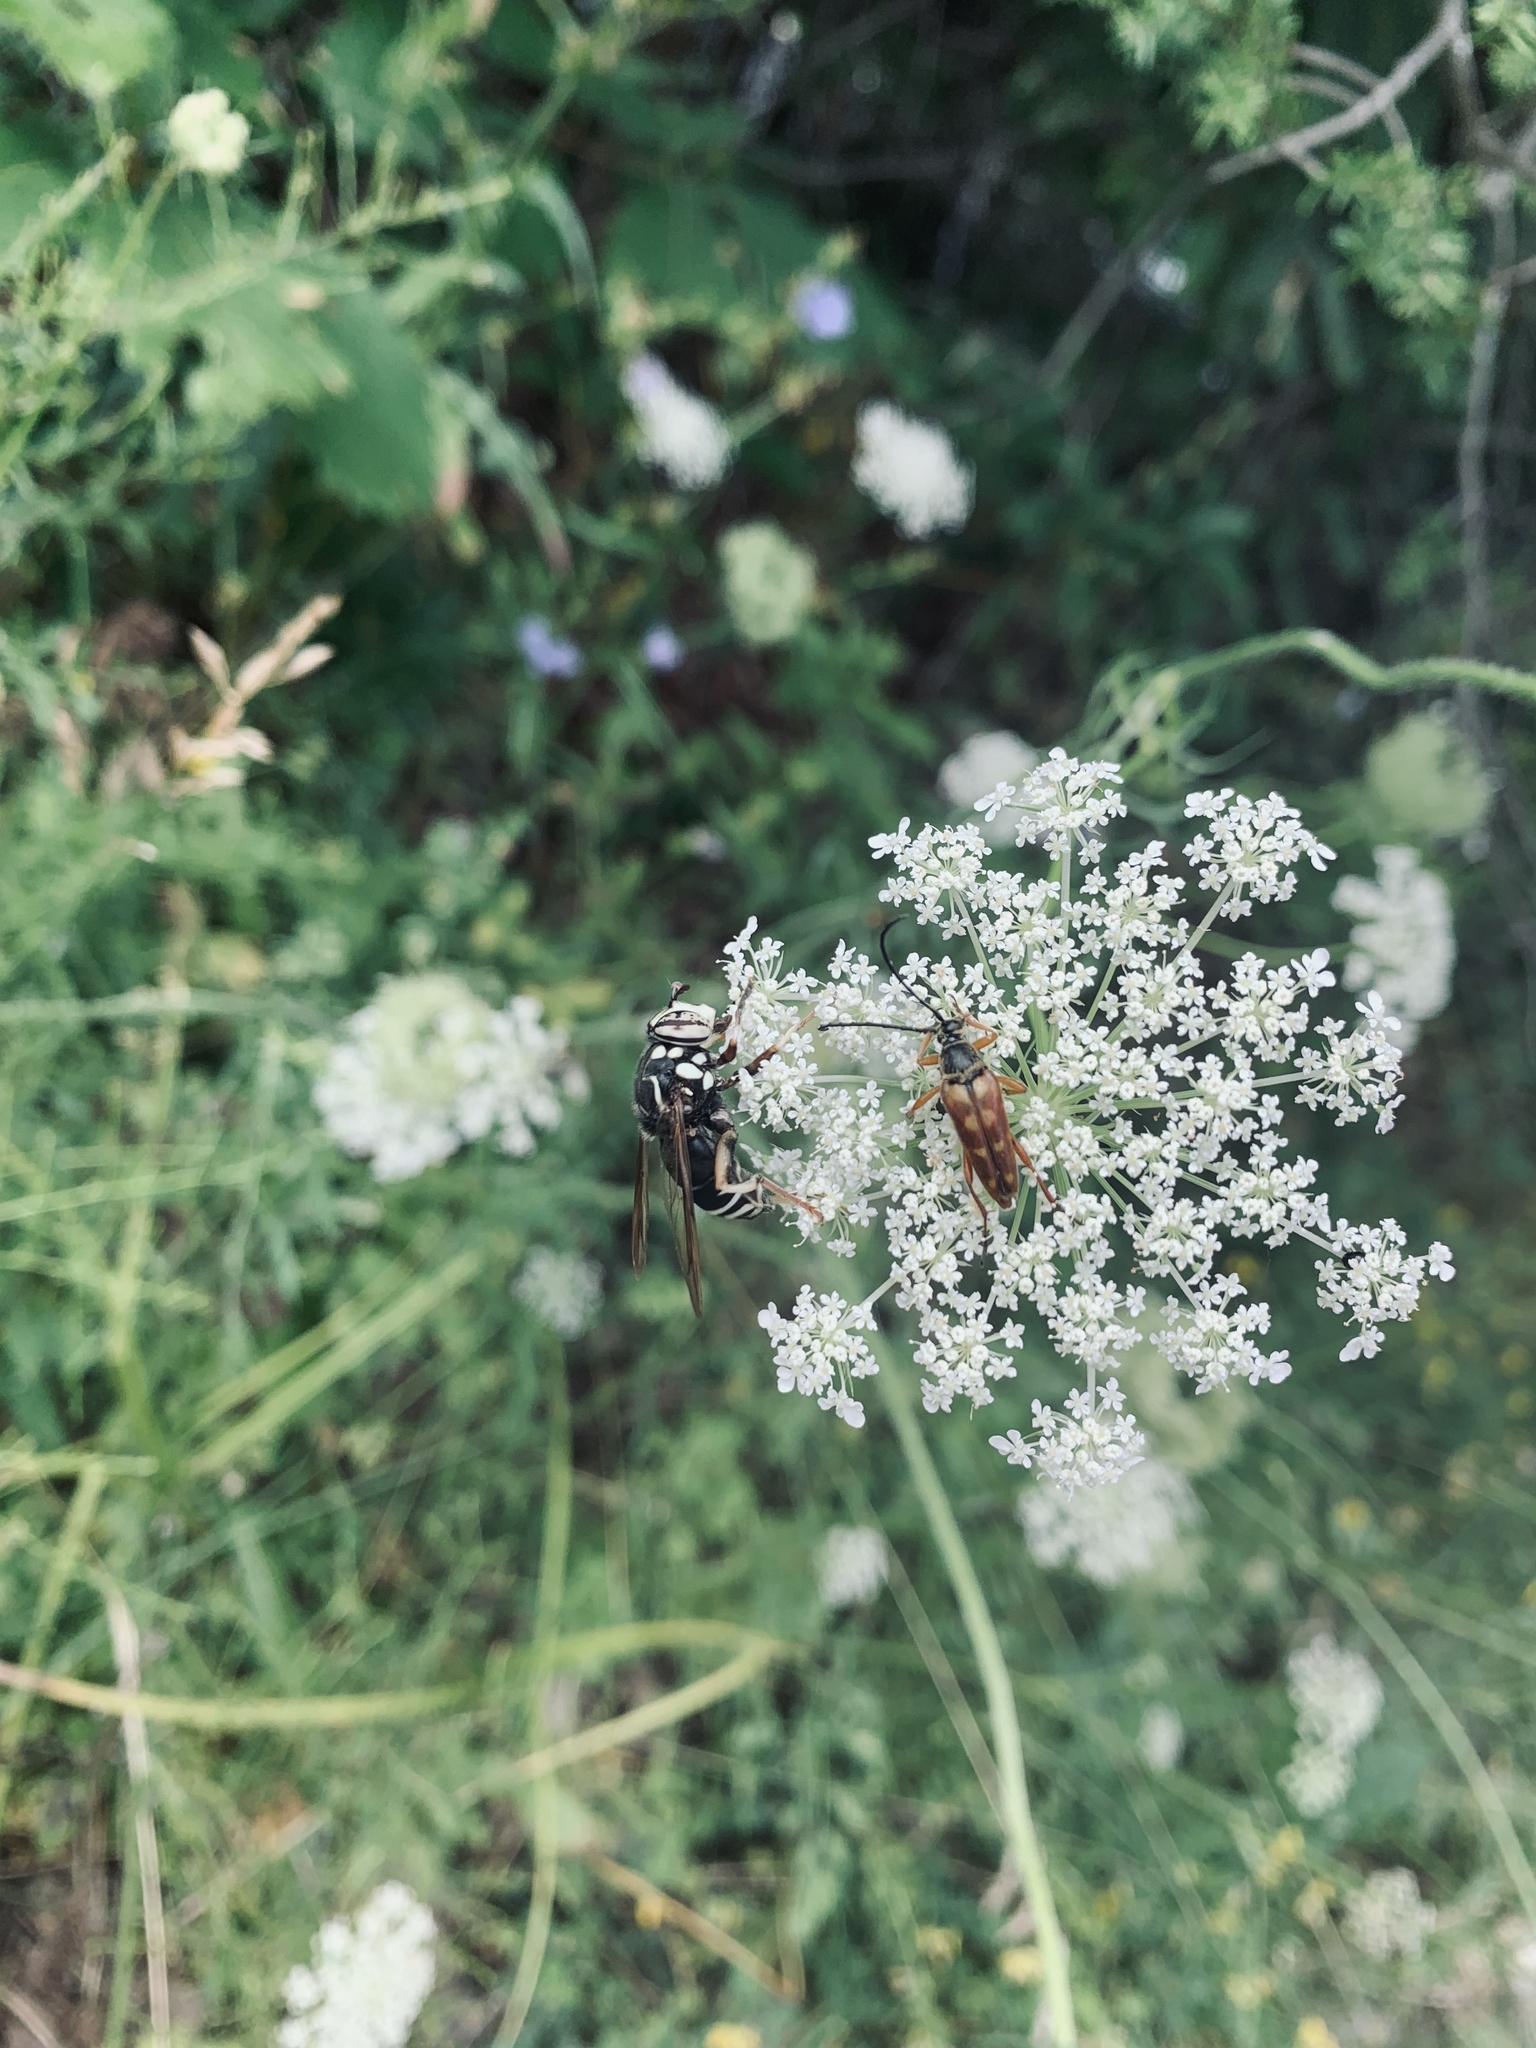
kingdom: Animalia
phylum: Arthropoda
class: Insecta
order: Coleoptera
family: Cerambycidae
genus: Typocerus
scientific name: Typocerus velutinus
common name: Banded longhorn beetle
